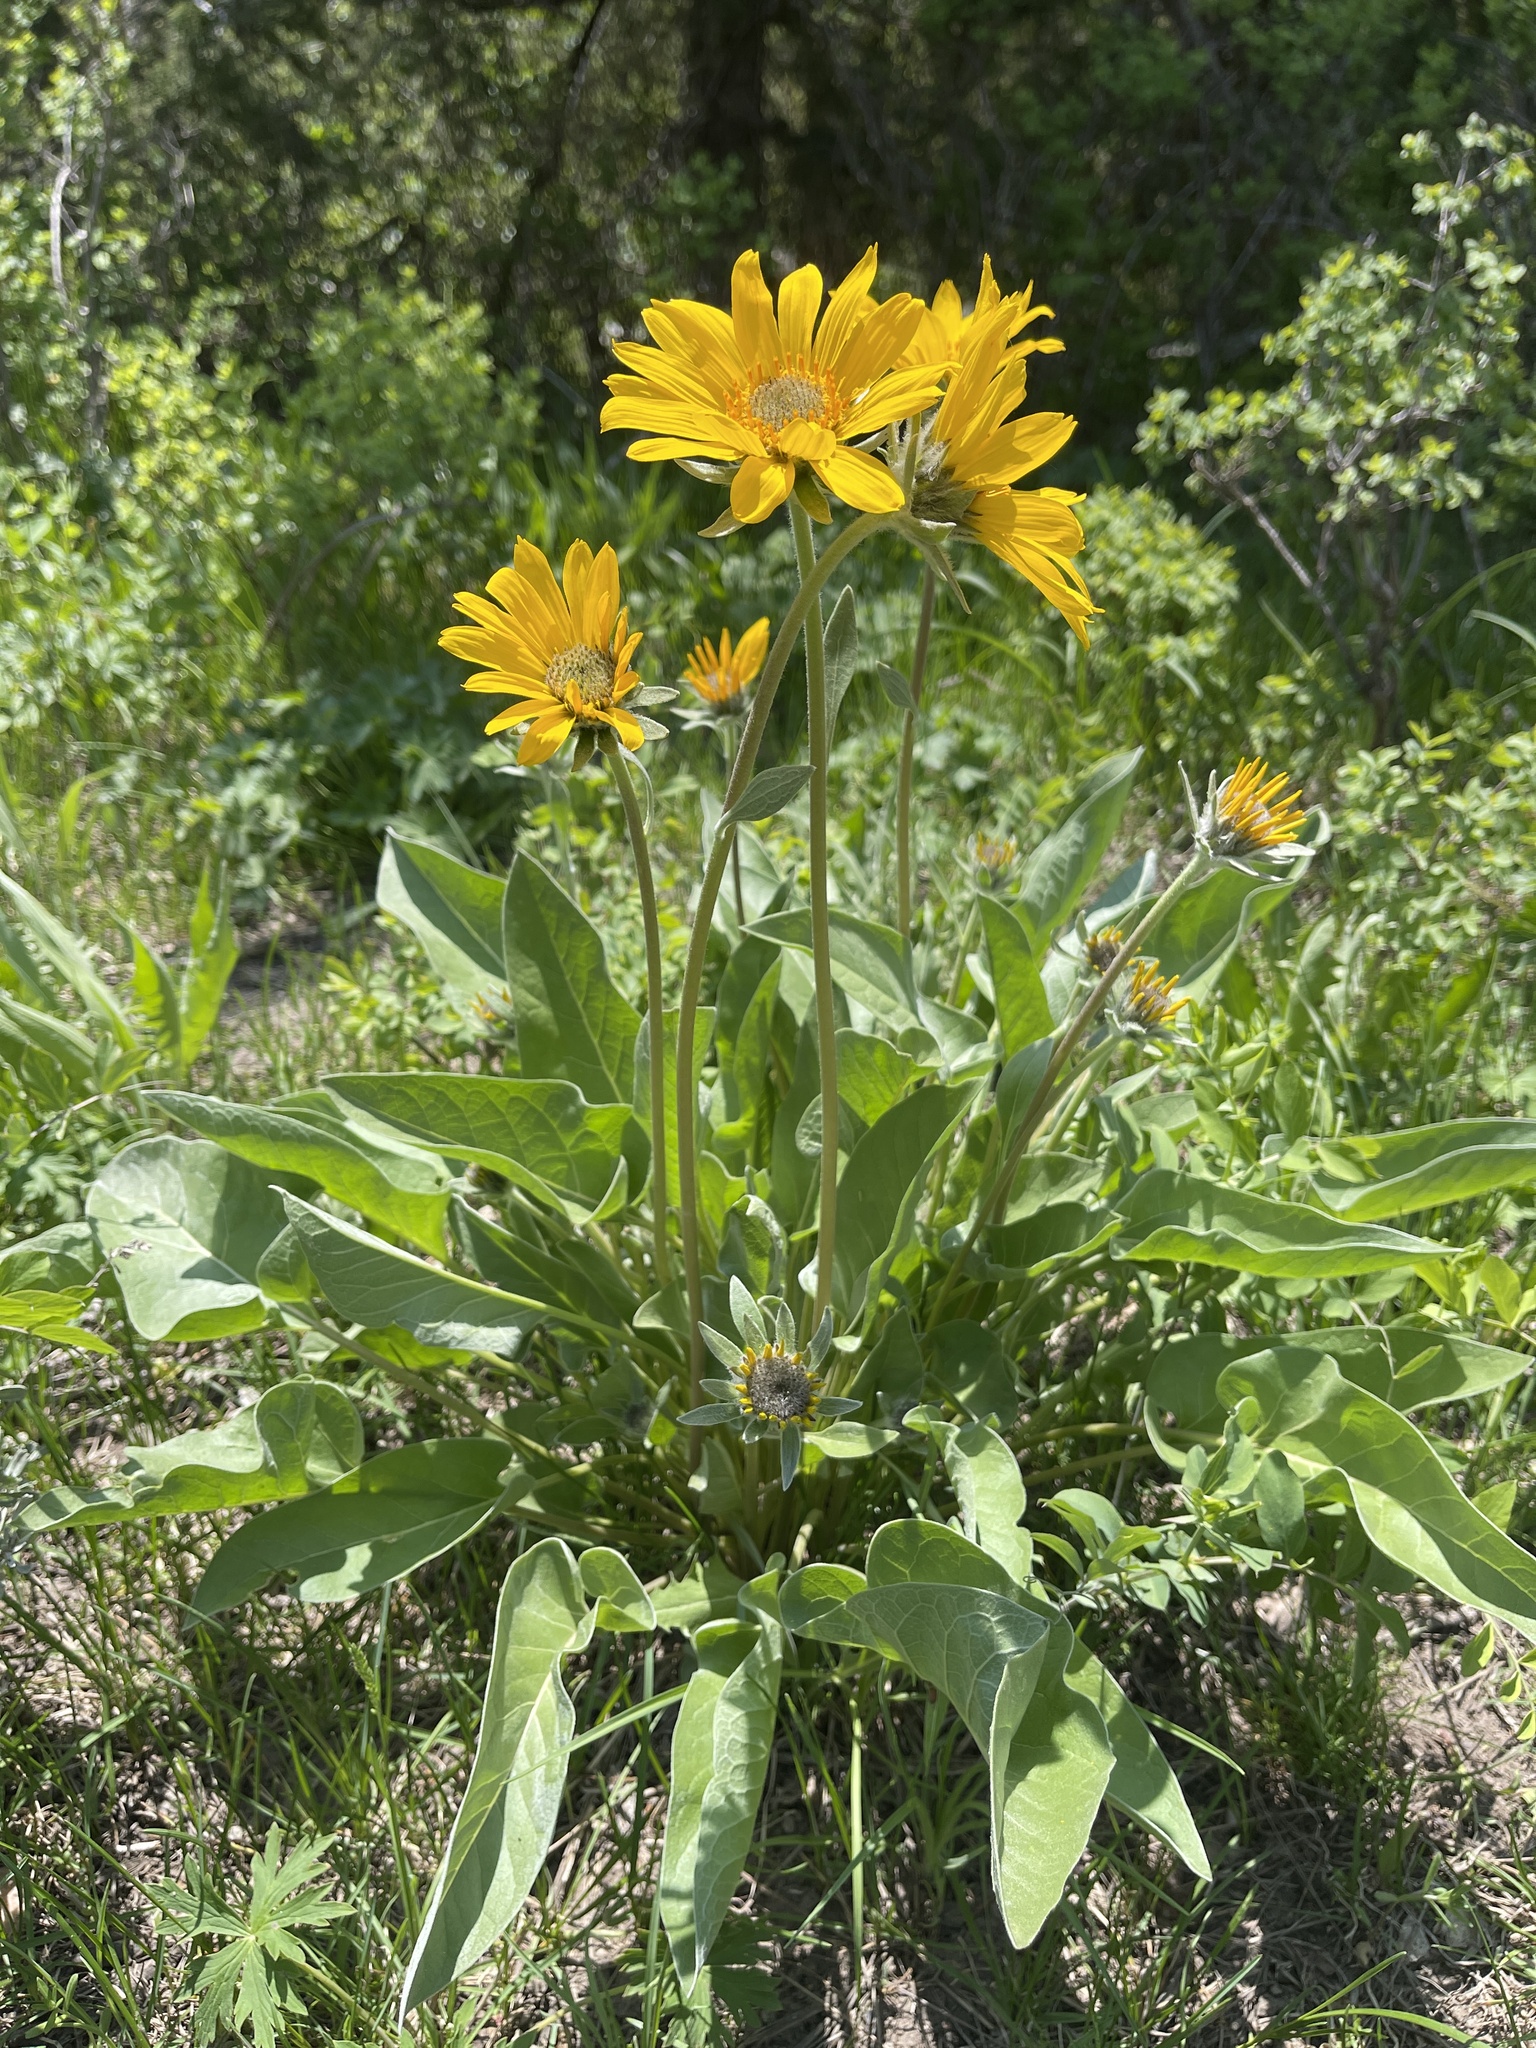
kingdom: Plantae
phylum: Tracheophyta
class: Magnoliopsida
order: Asterales
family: Asteraceae
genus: Wyethia
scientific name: Wyethia sagittata
